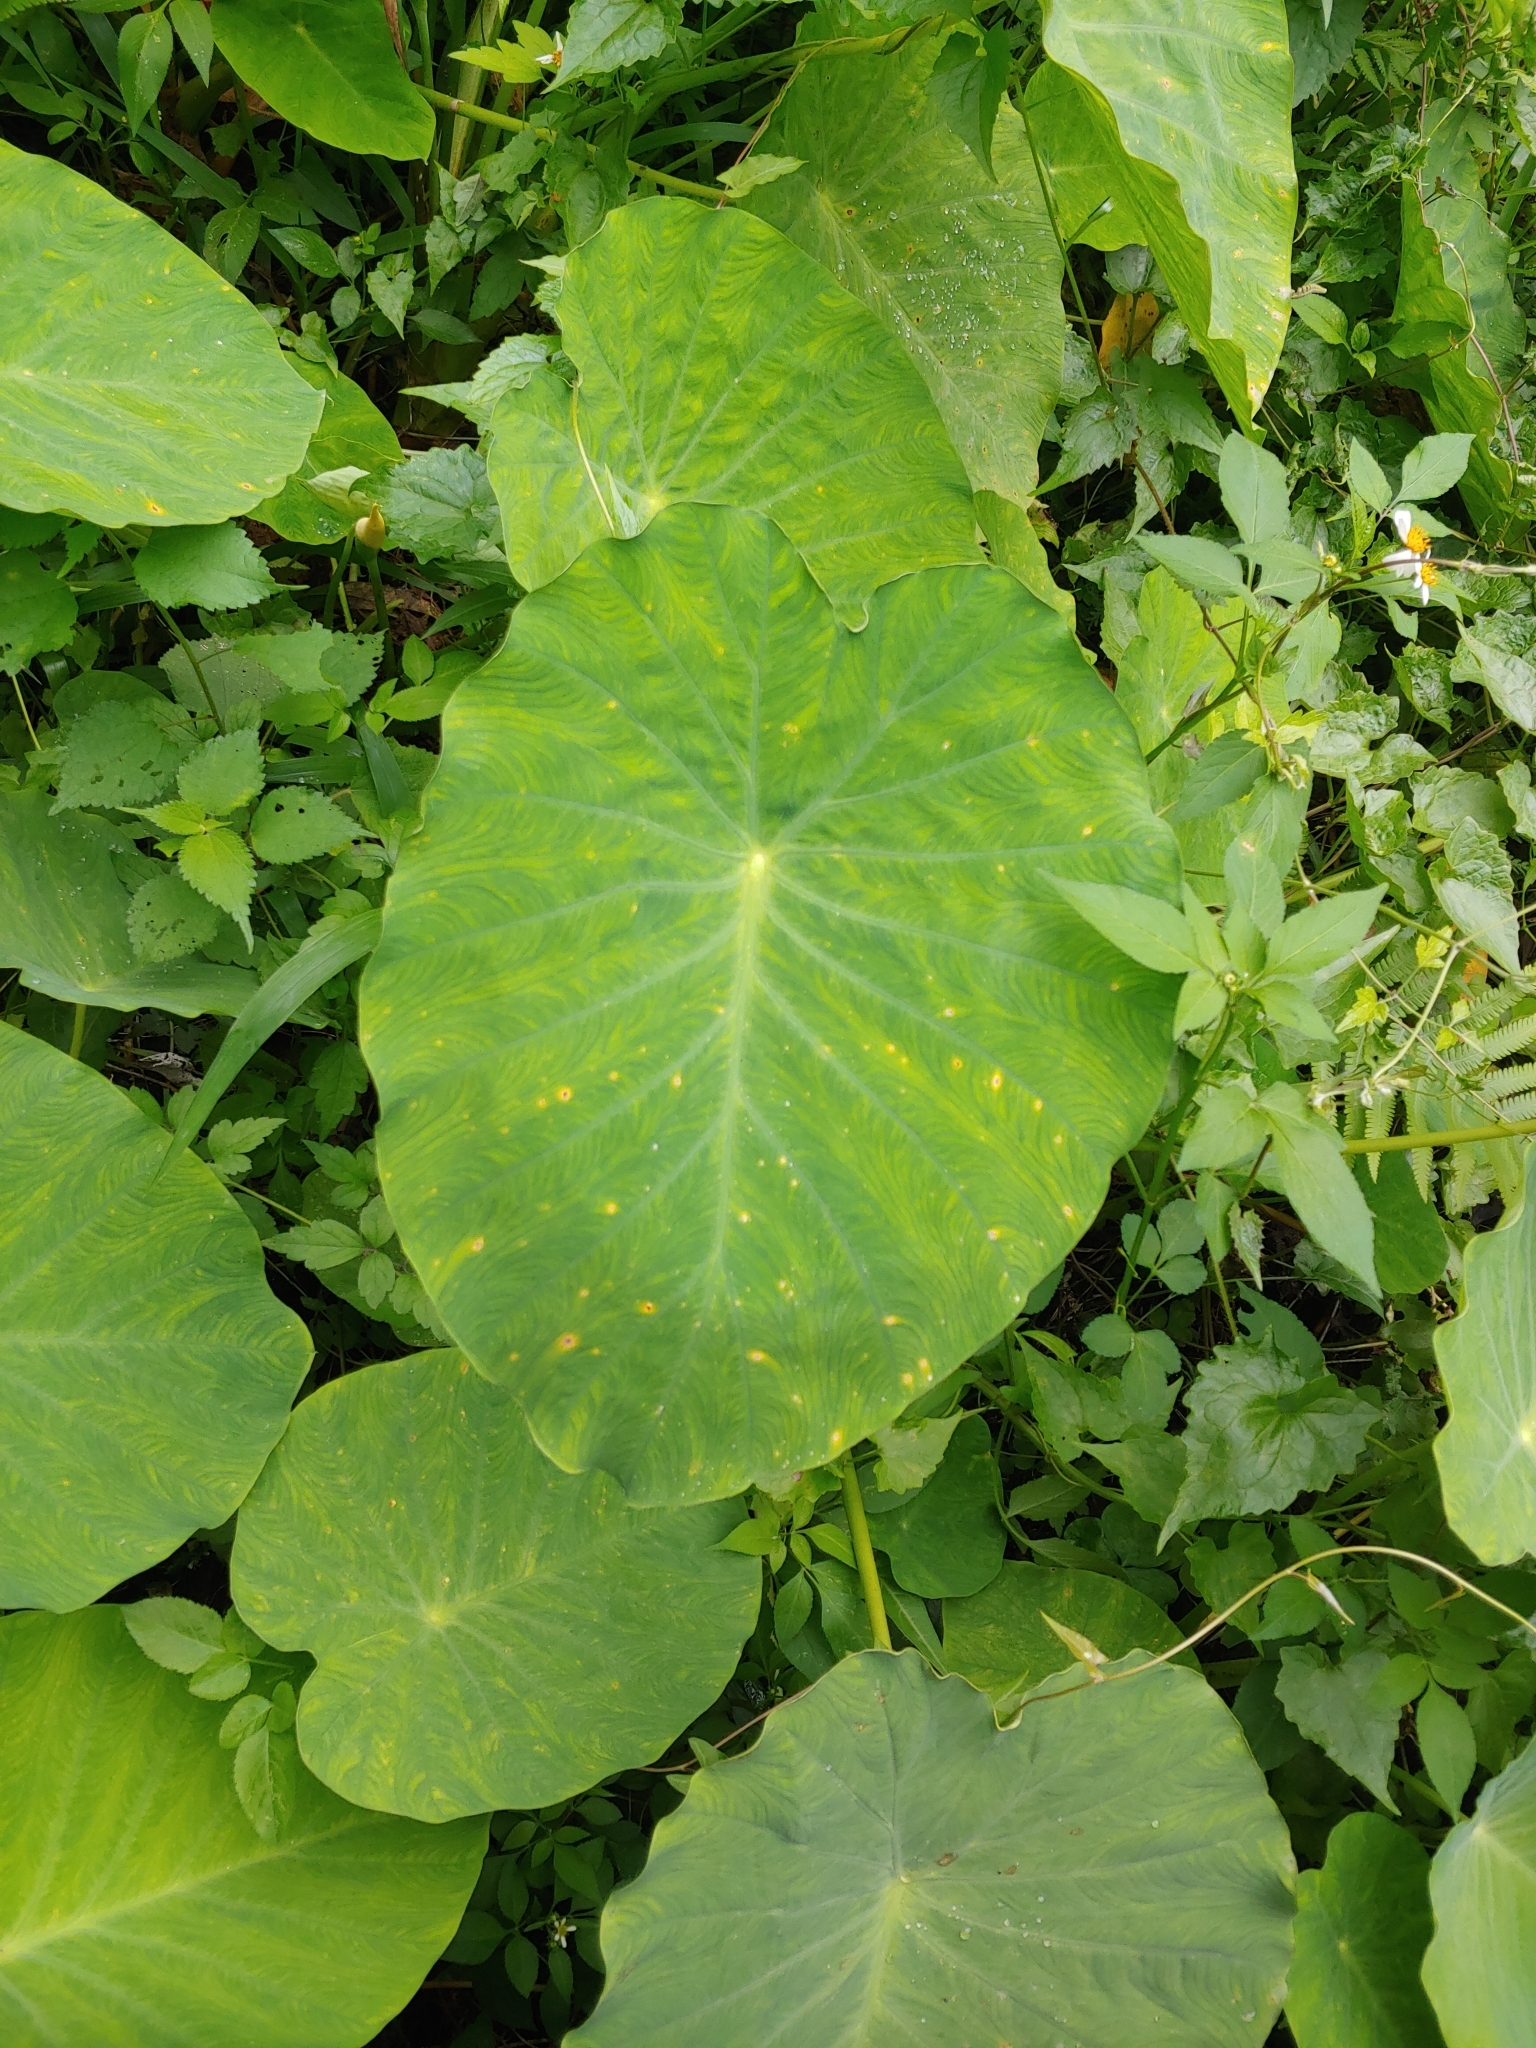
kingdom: Plantae
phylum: Tracheophyta
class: Liliopsida
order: Alismatales
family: Araceae
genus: Colocasia
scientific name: Colocasia esculenta
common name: Taro
